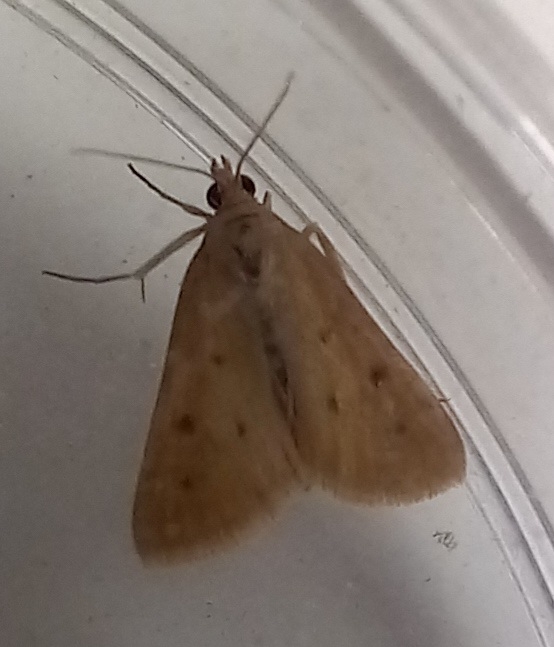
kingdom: Animalia
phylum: Arthropoda
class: Insecta
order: Lepidoptera
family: Crambidae
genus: Achyra
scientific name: Achyra nudalis
